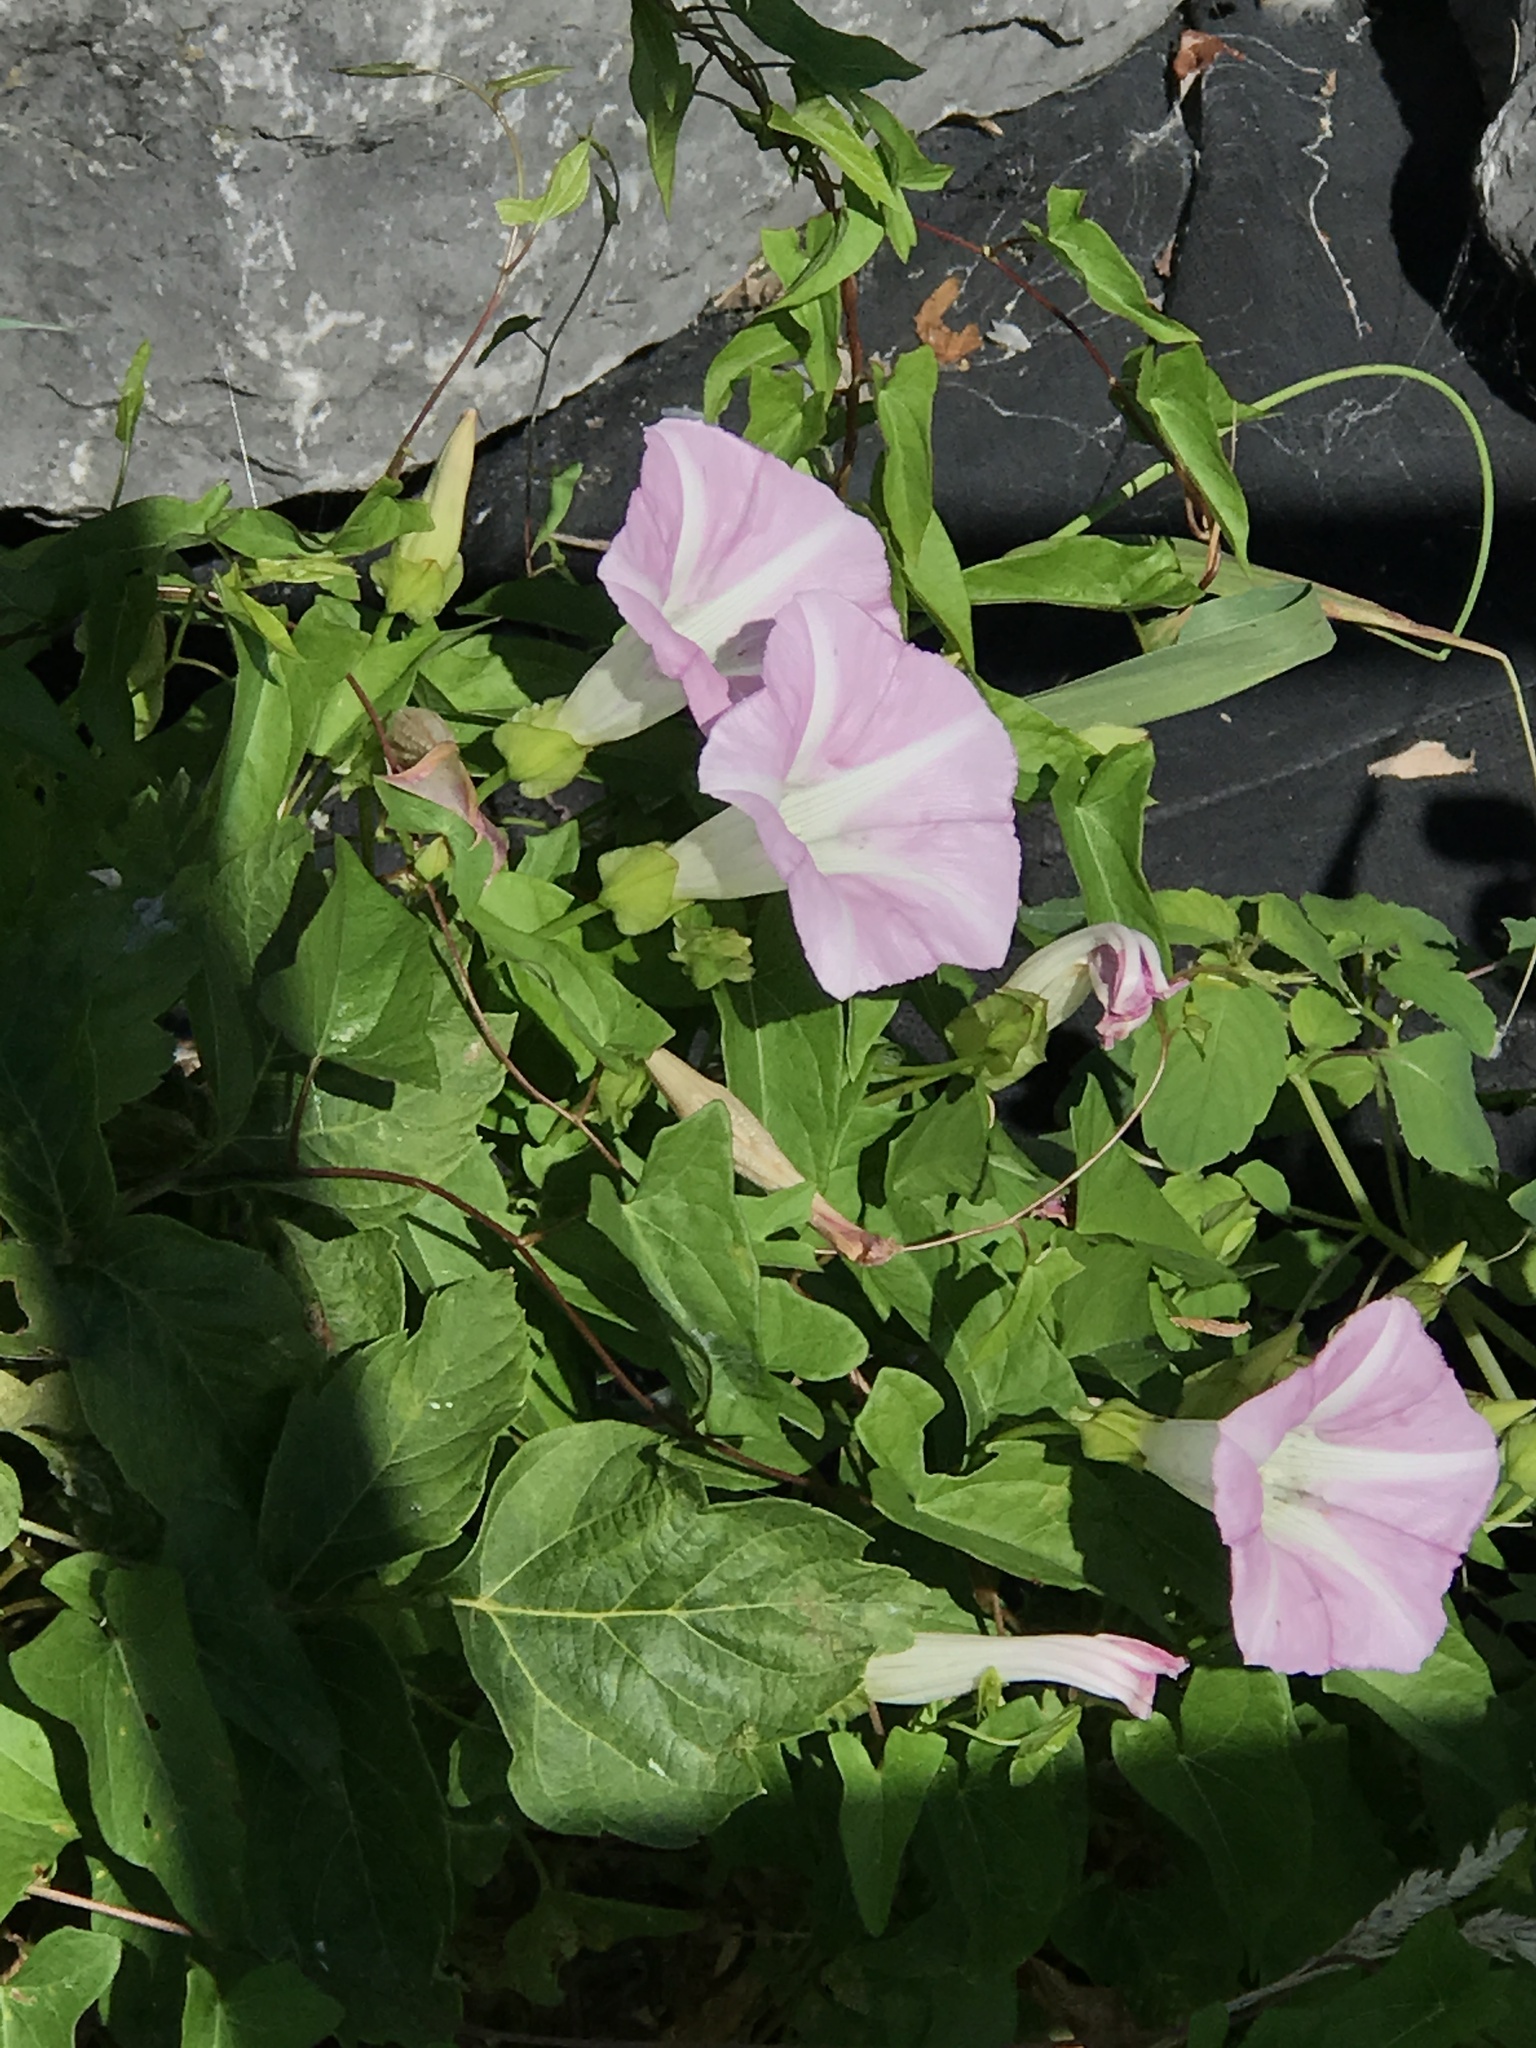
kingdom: Plantae
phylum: Tracheophyta
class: Magnoliopsida
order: Solanales
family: Convolvulaceae
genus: Calystegia
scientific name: Calystegia sepium
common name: Hedge bindweed
